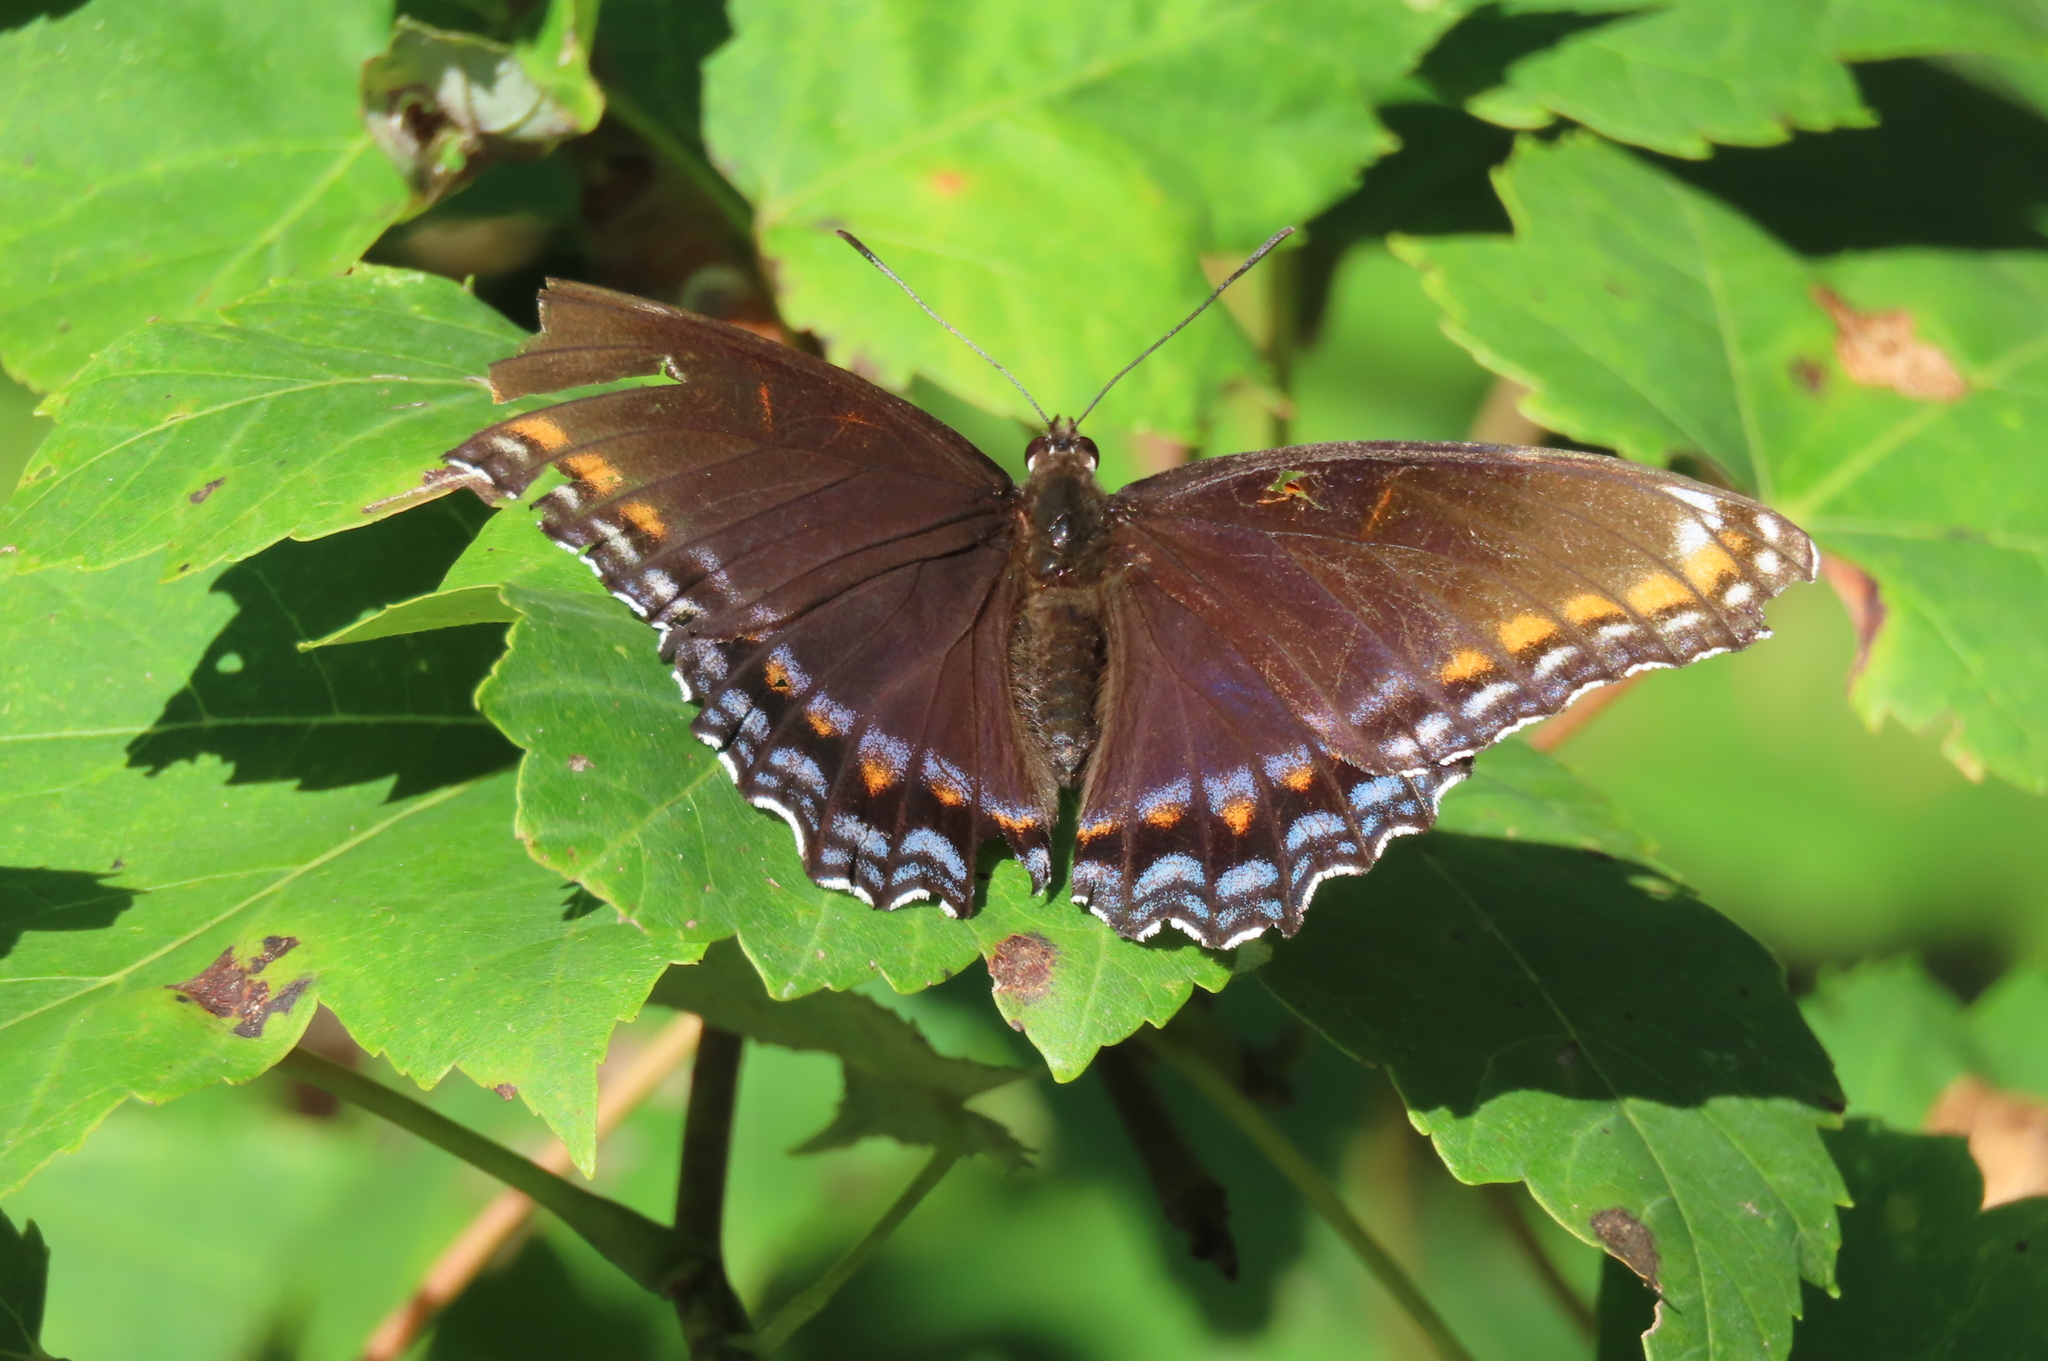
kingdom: Animalia
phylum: Arthropoda
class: Insecta
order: Lepidoptera
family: Nymphalidae
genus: Limenitis
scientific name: Limenitis arthemis
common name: Red-spotted admiral
